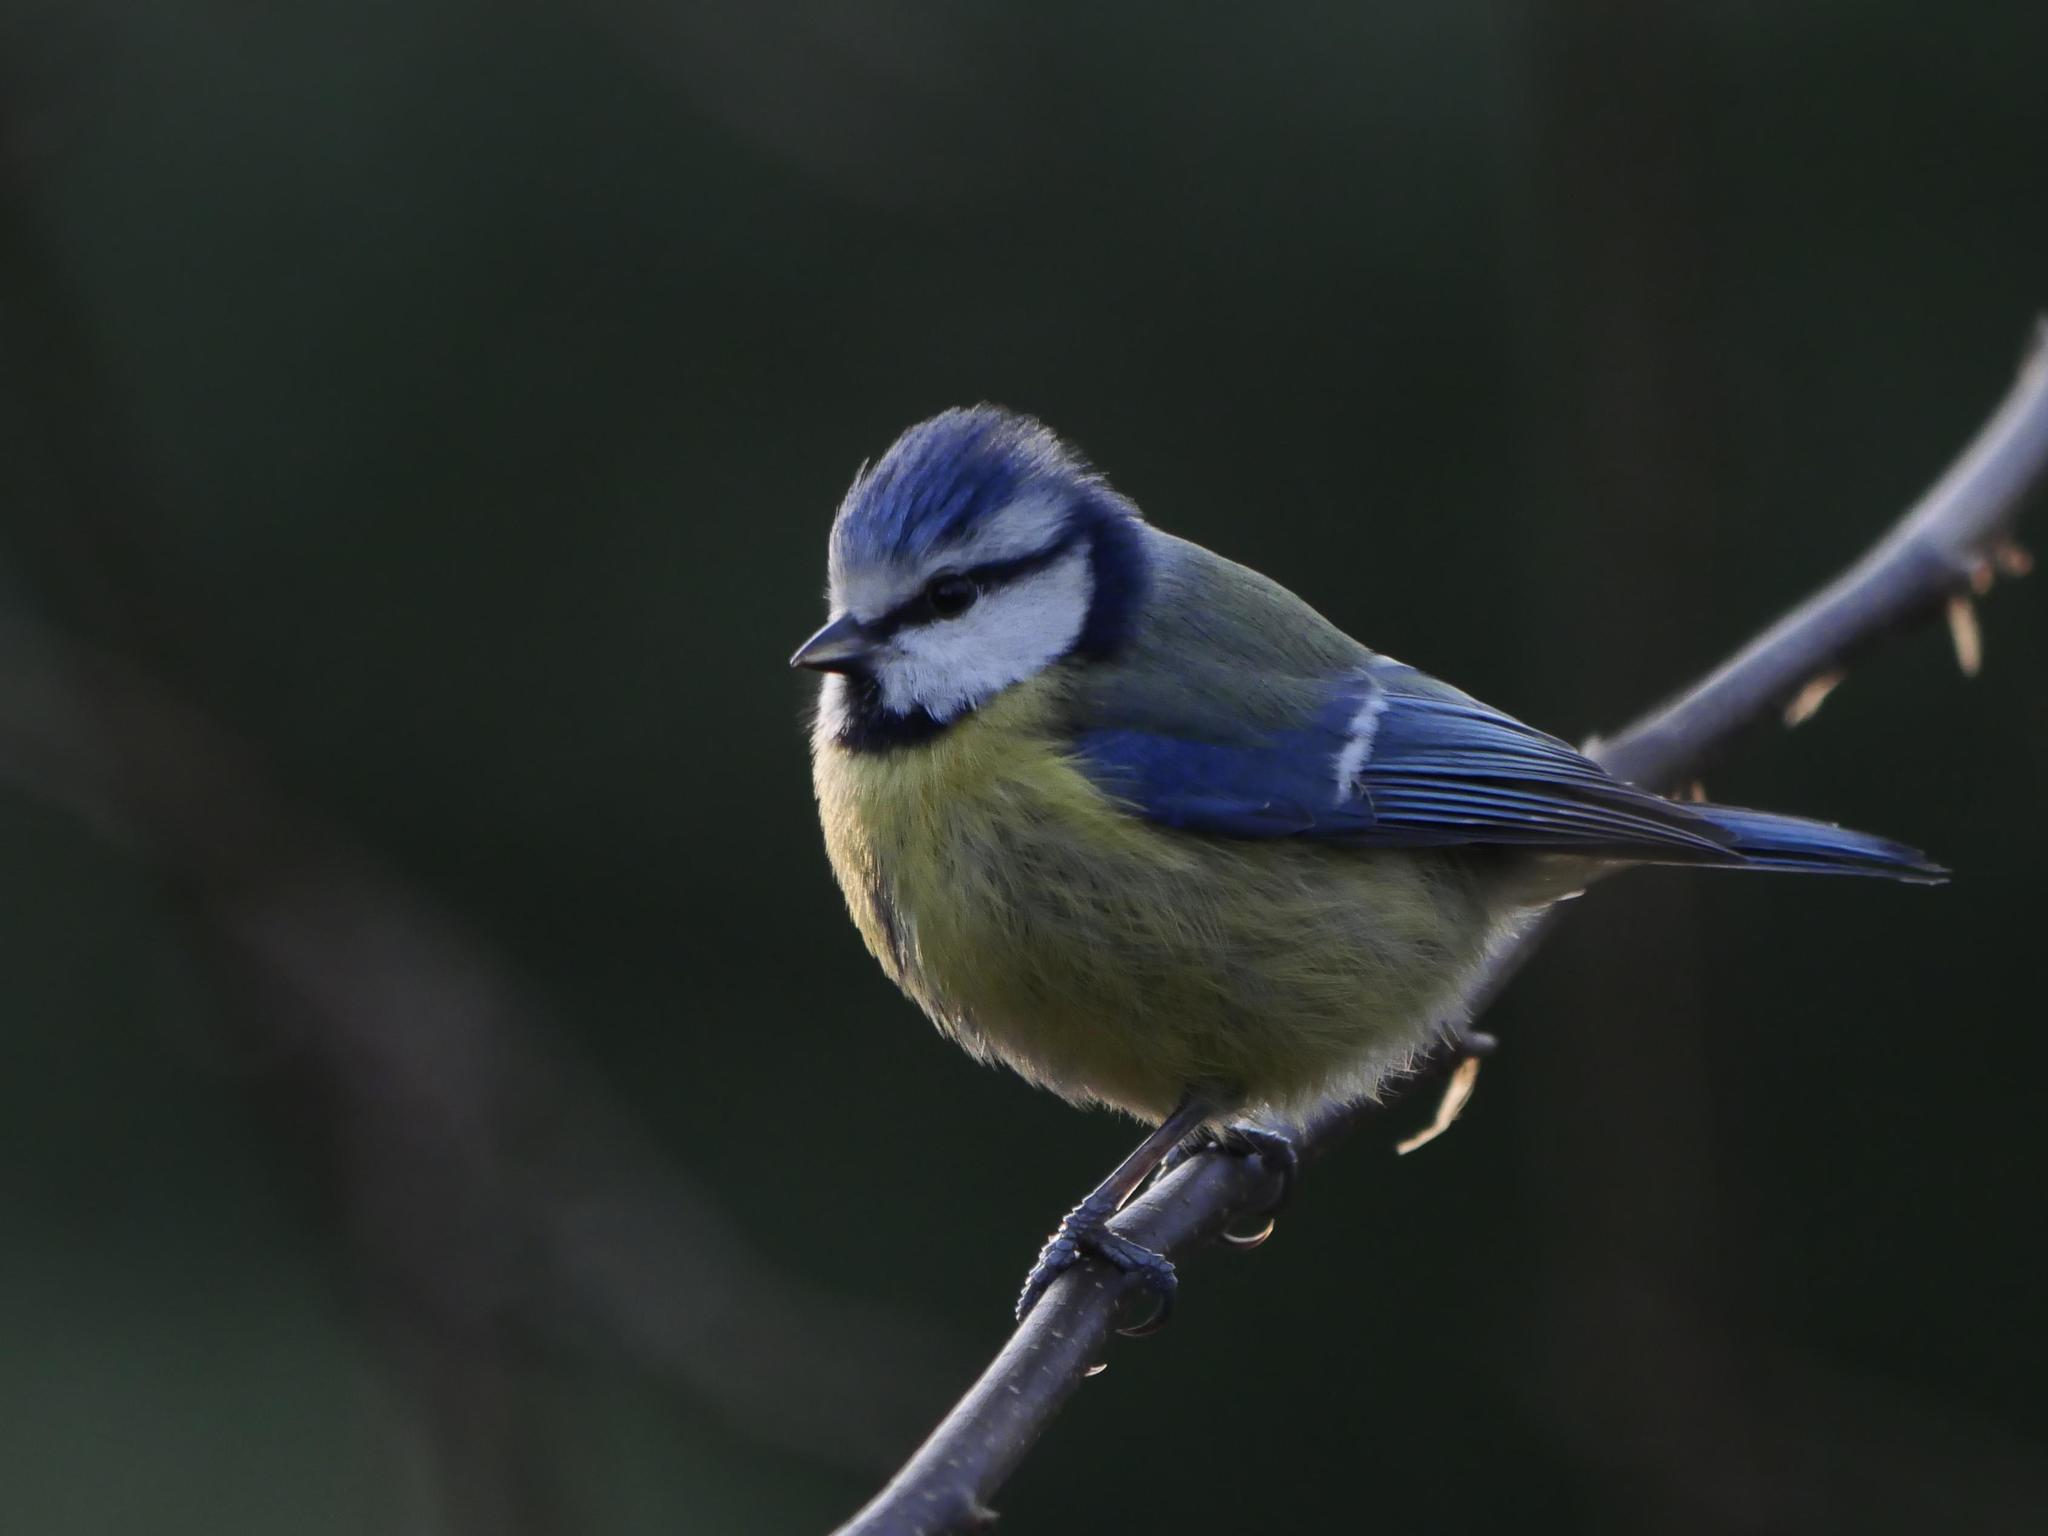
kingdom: Animalia
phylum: Chordata
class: Aves
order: Passeriformes
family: Paridae
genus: Cyanistes
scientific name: Cyanistes caeruleus
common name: Eurasian blue tit
